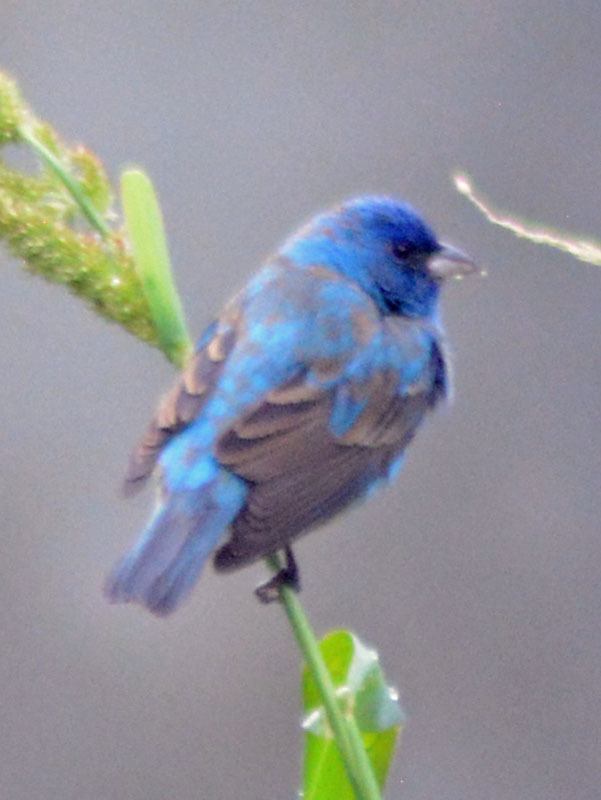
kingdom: Animalia
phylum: Chordata
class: Aves
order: Passeriformes
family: Cardinalidae
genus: Passerina
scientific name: Passerina cyanea
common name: Indigo bunting
